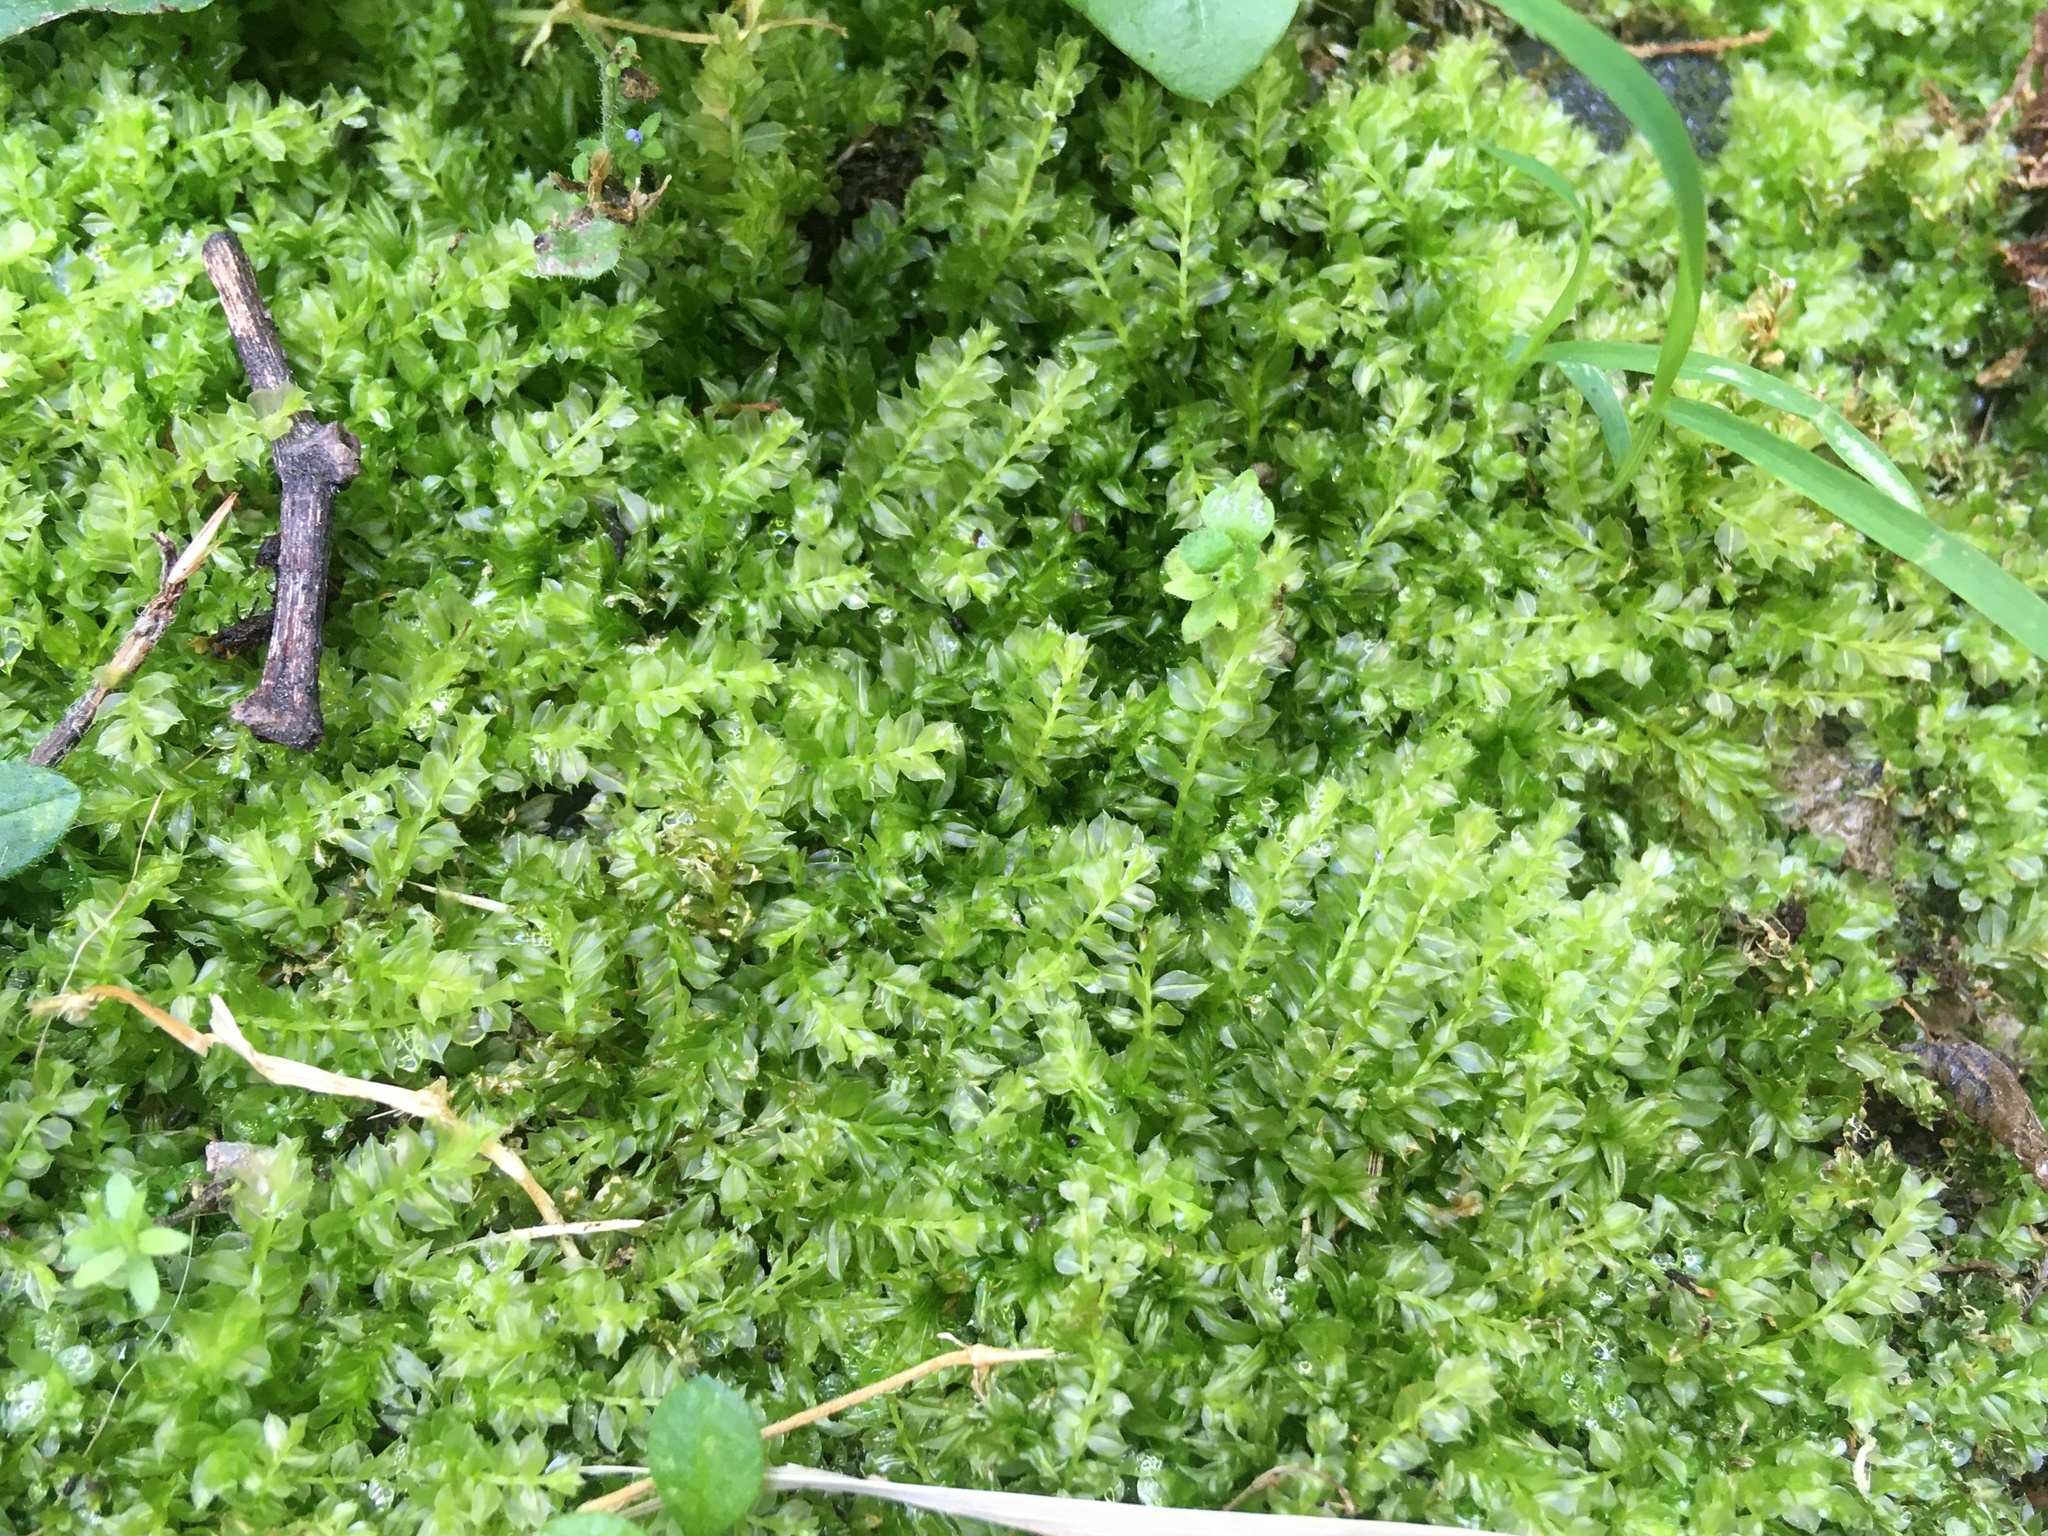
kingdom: Plantae
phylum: Bryophyta
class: Bryopsida
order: Bryales
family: Mniaceae
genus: Plagiomnium
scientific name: Plagiomnium cuspidatum
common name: Woodsy leafy moss
